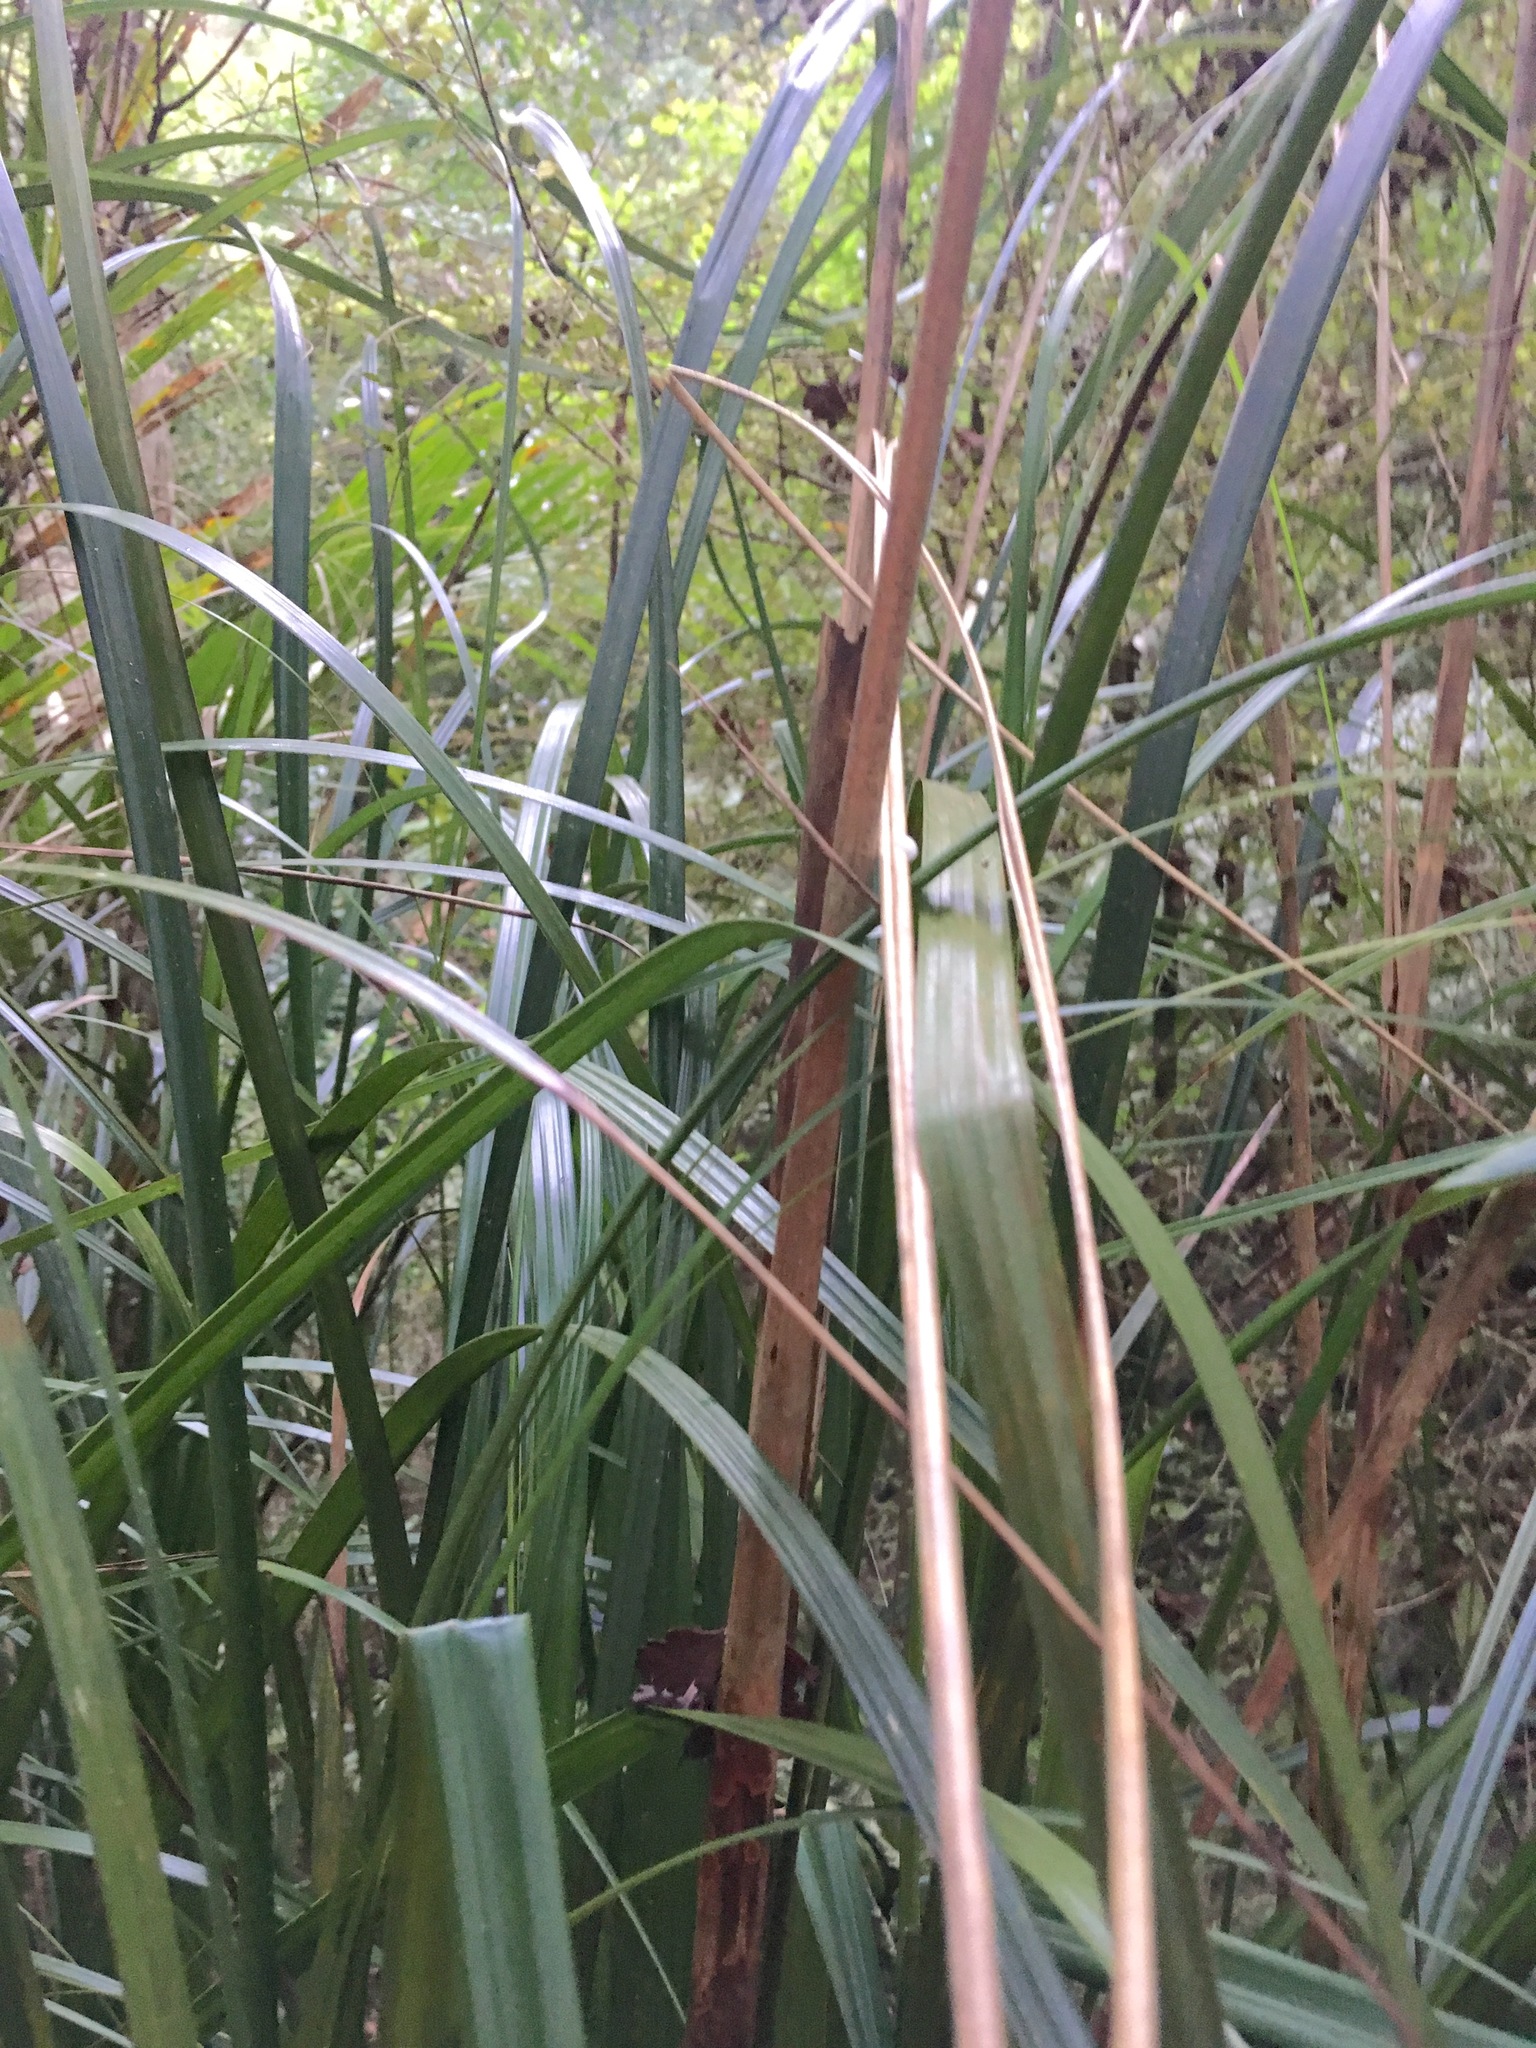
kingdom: Plantae
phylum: Tracheophyta
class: Liliopsida
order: Poales
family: Cyperaceae
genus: Gahnia
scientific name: Gahnia xanthocarpa
